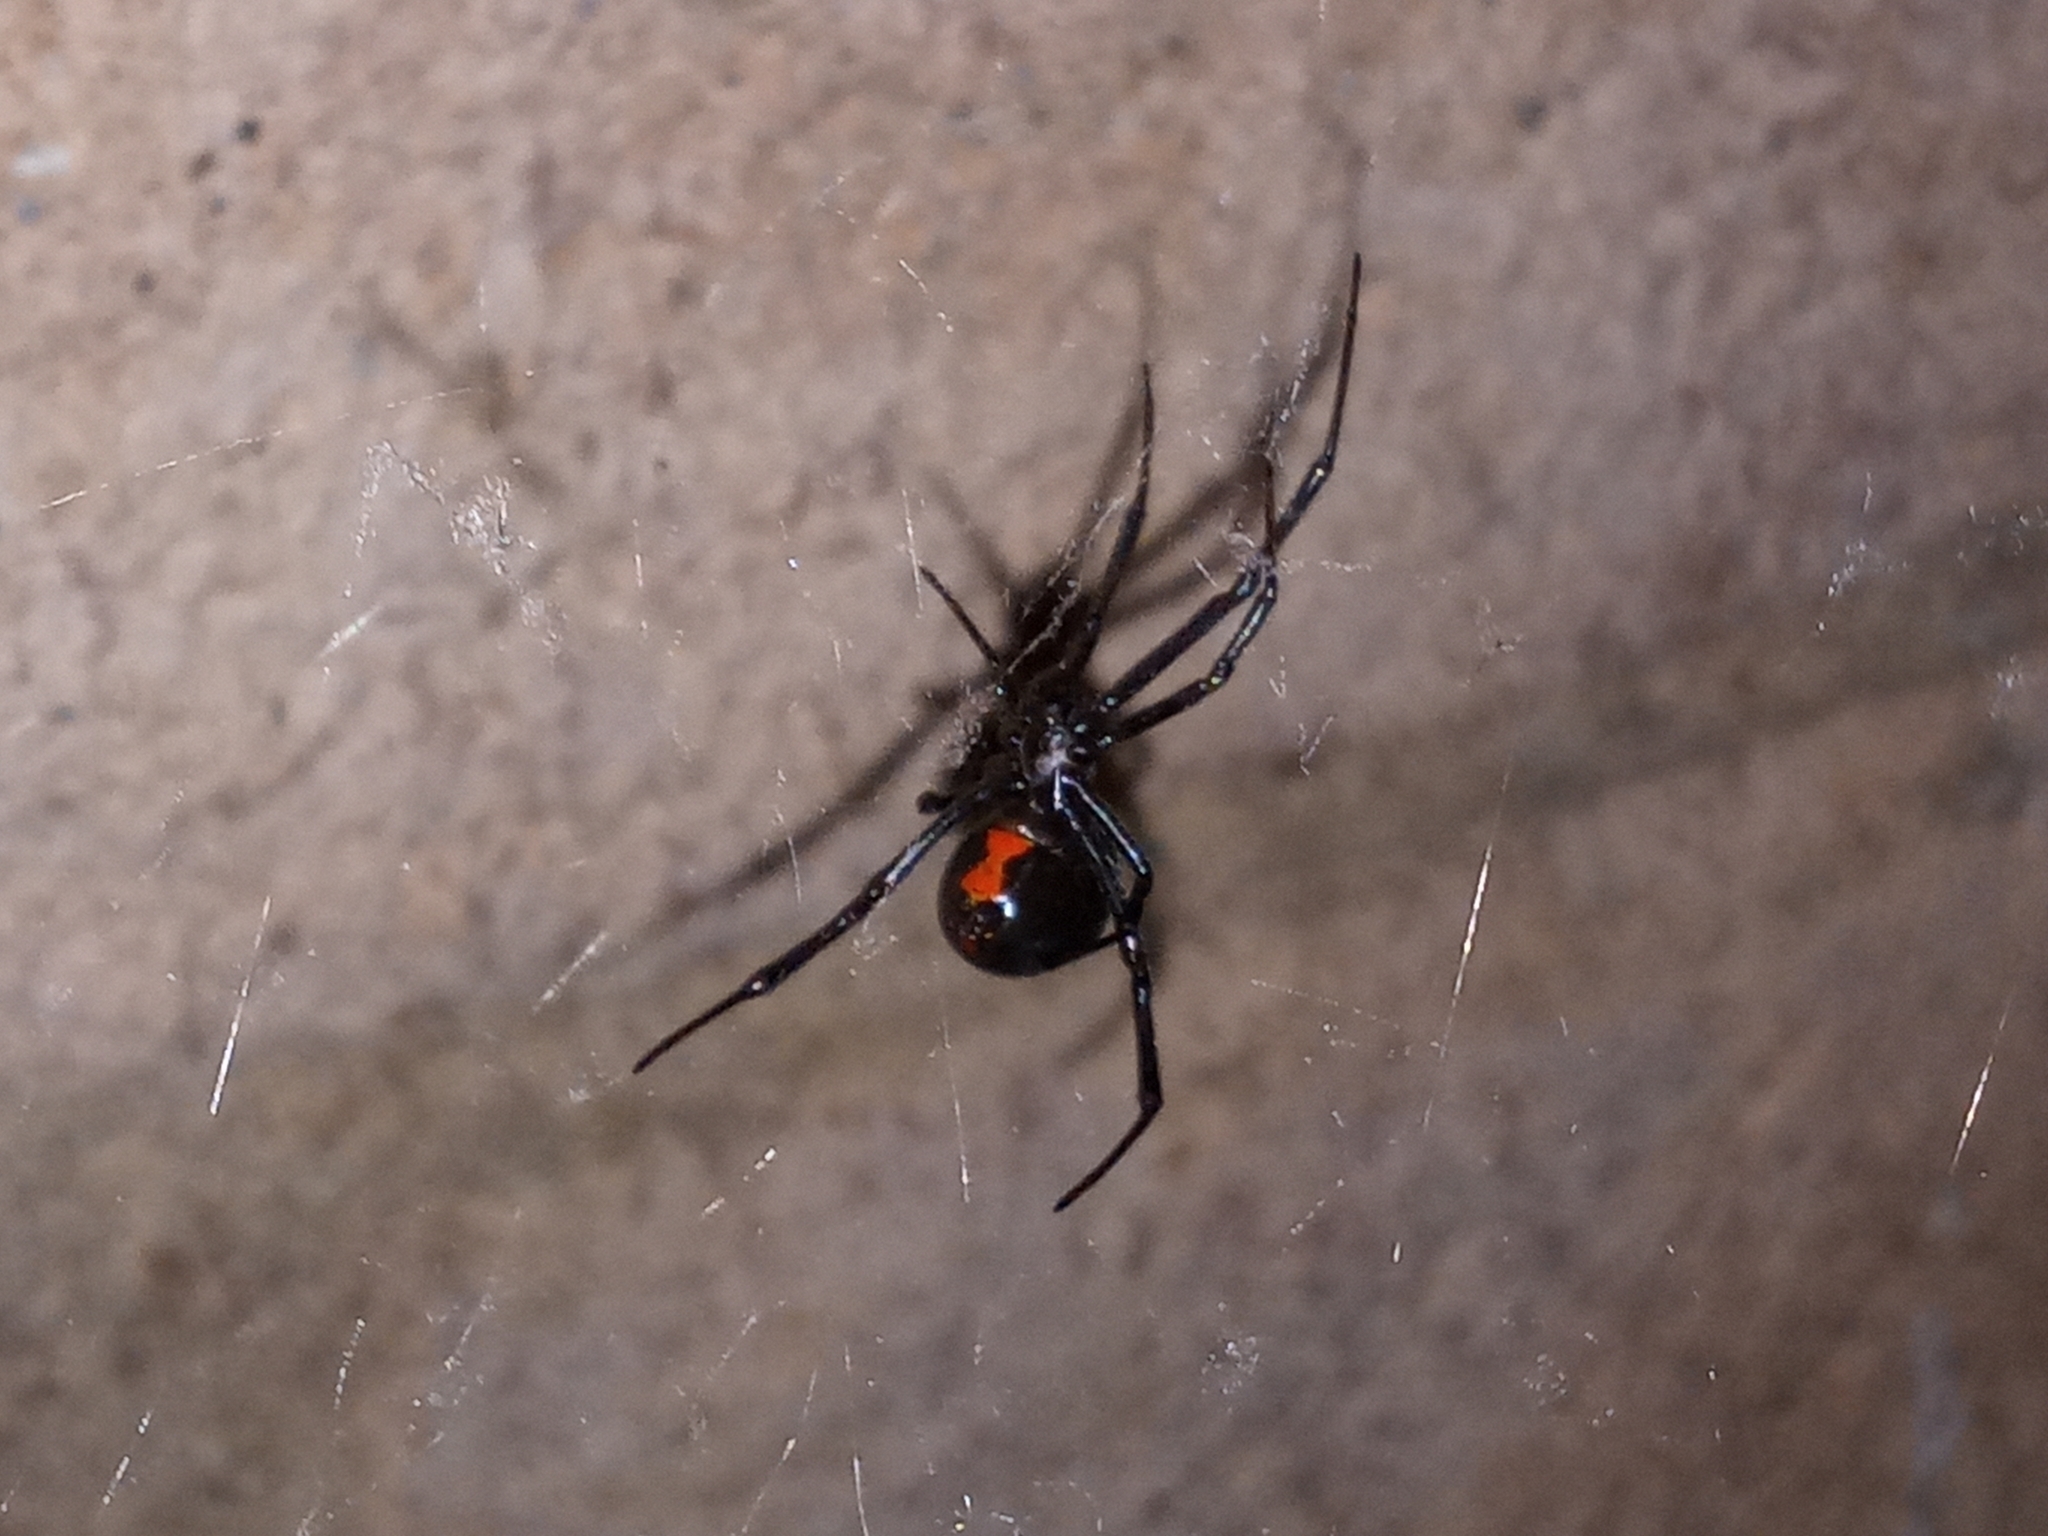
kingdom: Animalia
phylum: Arthropoda
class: Arachnida
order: Araneae
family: Theridiidae
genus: Latrodectus
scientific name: Latrodectus hesperus
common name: Western black widow
